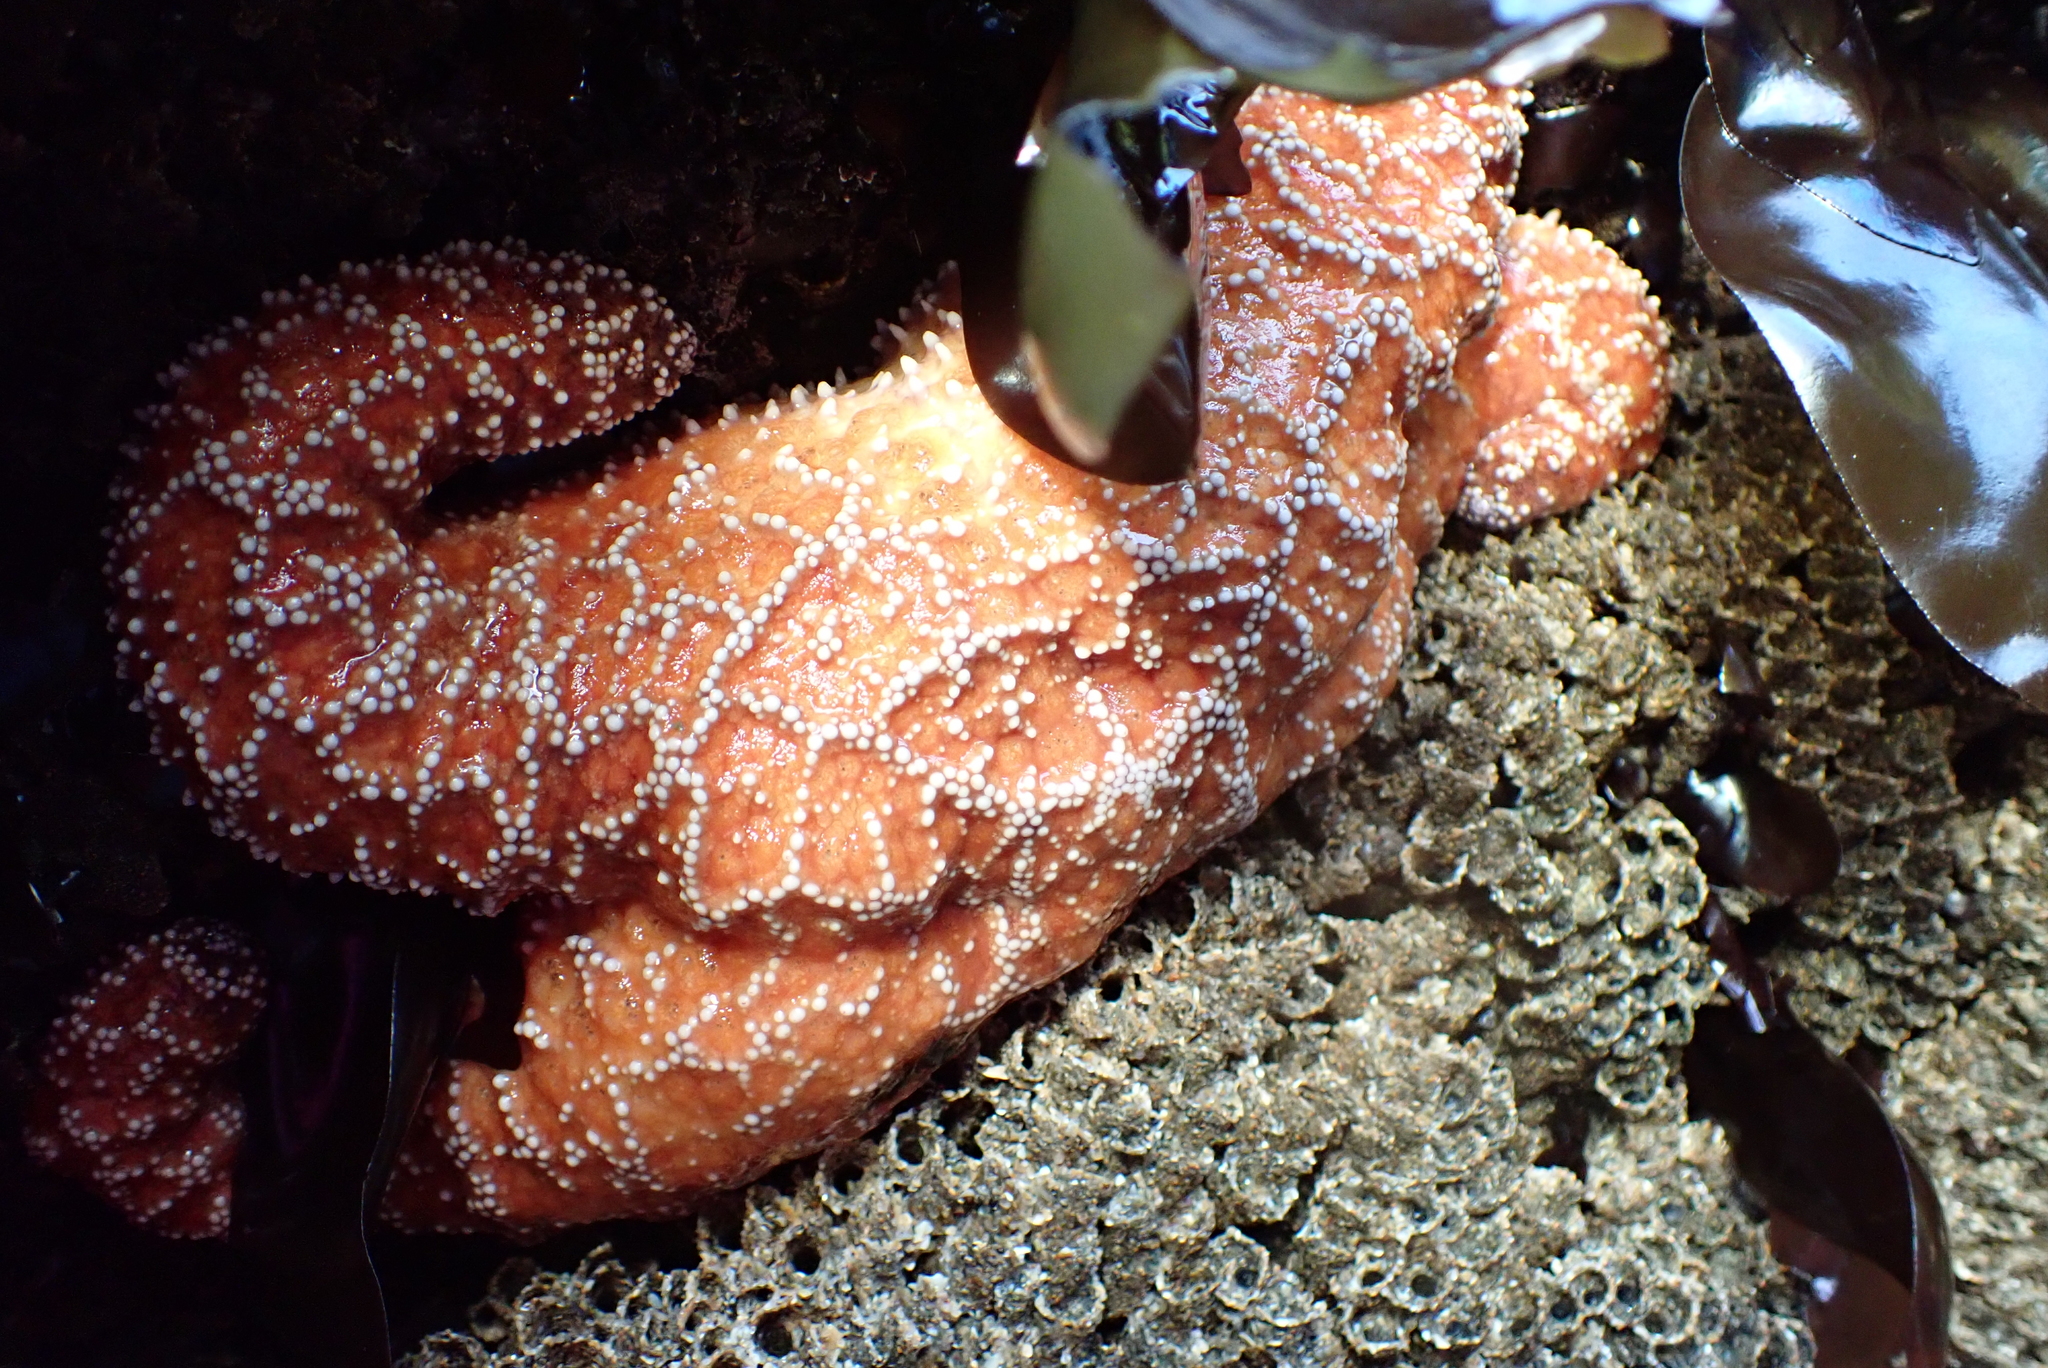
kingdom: Animalia
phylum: Echinodermata
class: Asteroidea
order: Forcipulatida
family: Asteriidae
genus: Pisaster
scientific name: Pisaster ochraceus
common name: Ochre stars
